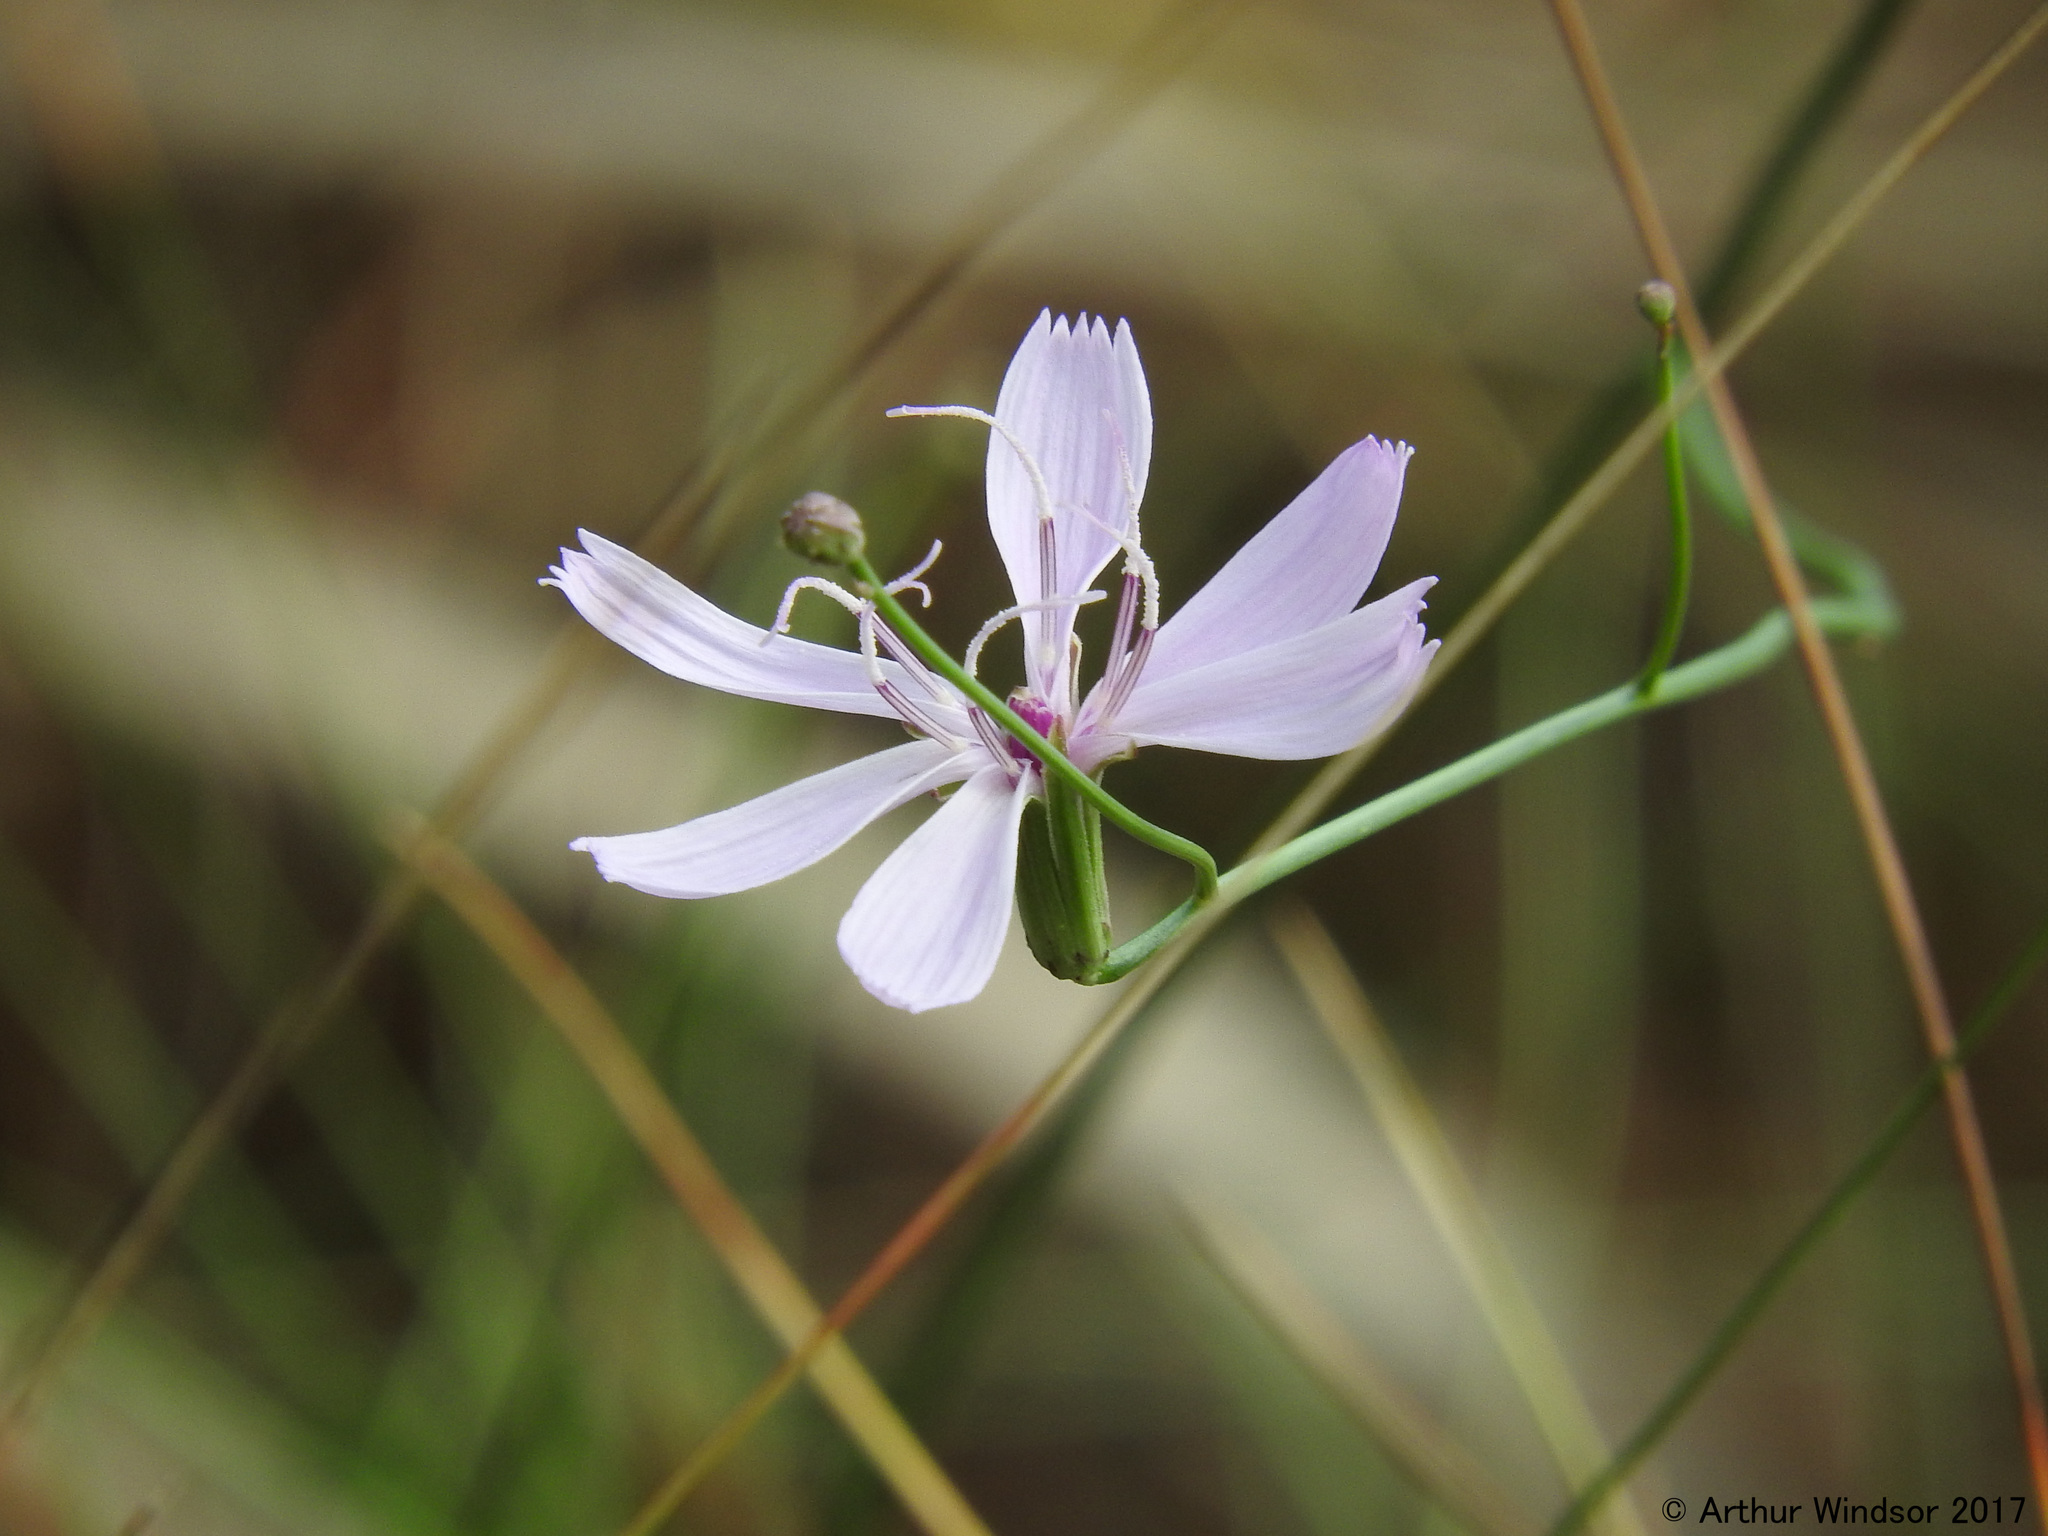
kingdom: Plantae
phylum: Tracheophyta
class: Magnoliopsida
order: Asterales
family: Asteraceae
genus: Lygodesmia
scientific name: Lygodesmia aphylla
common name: Rose-rush
